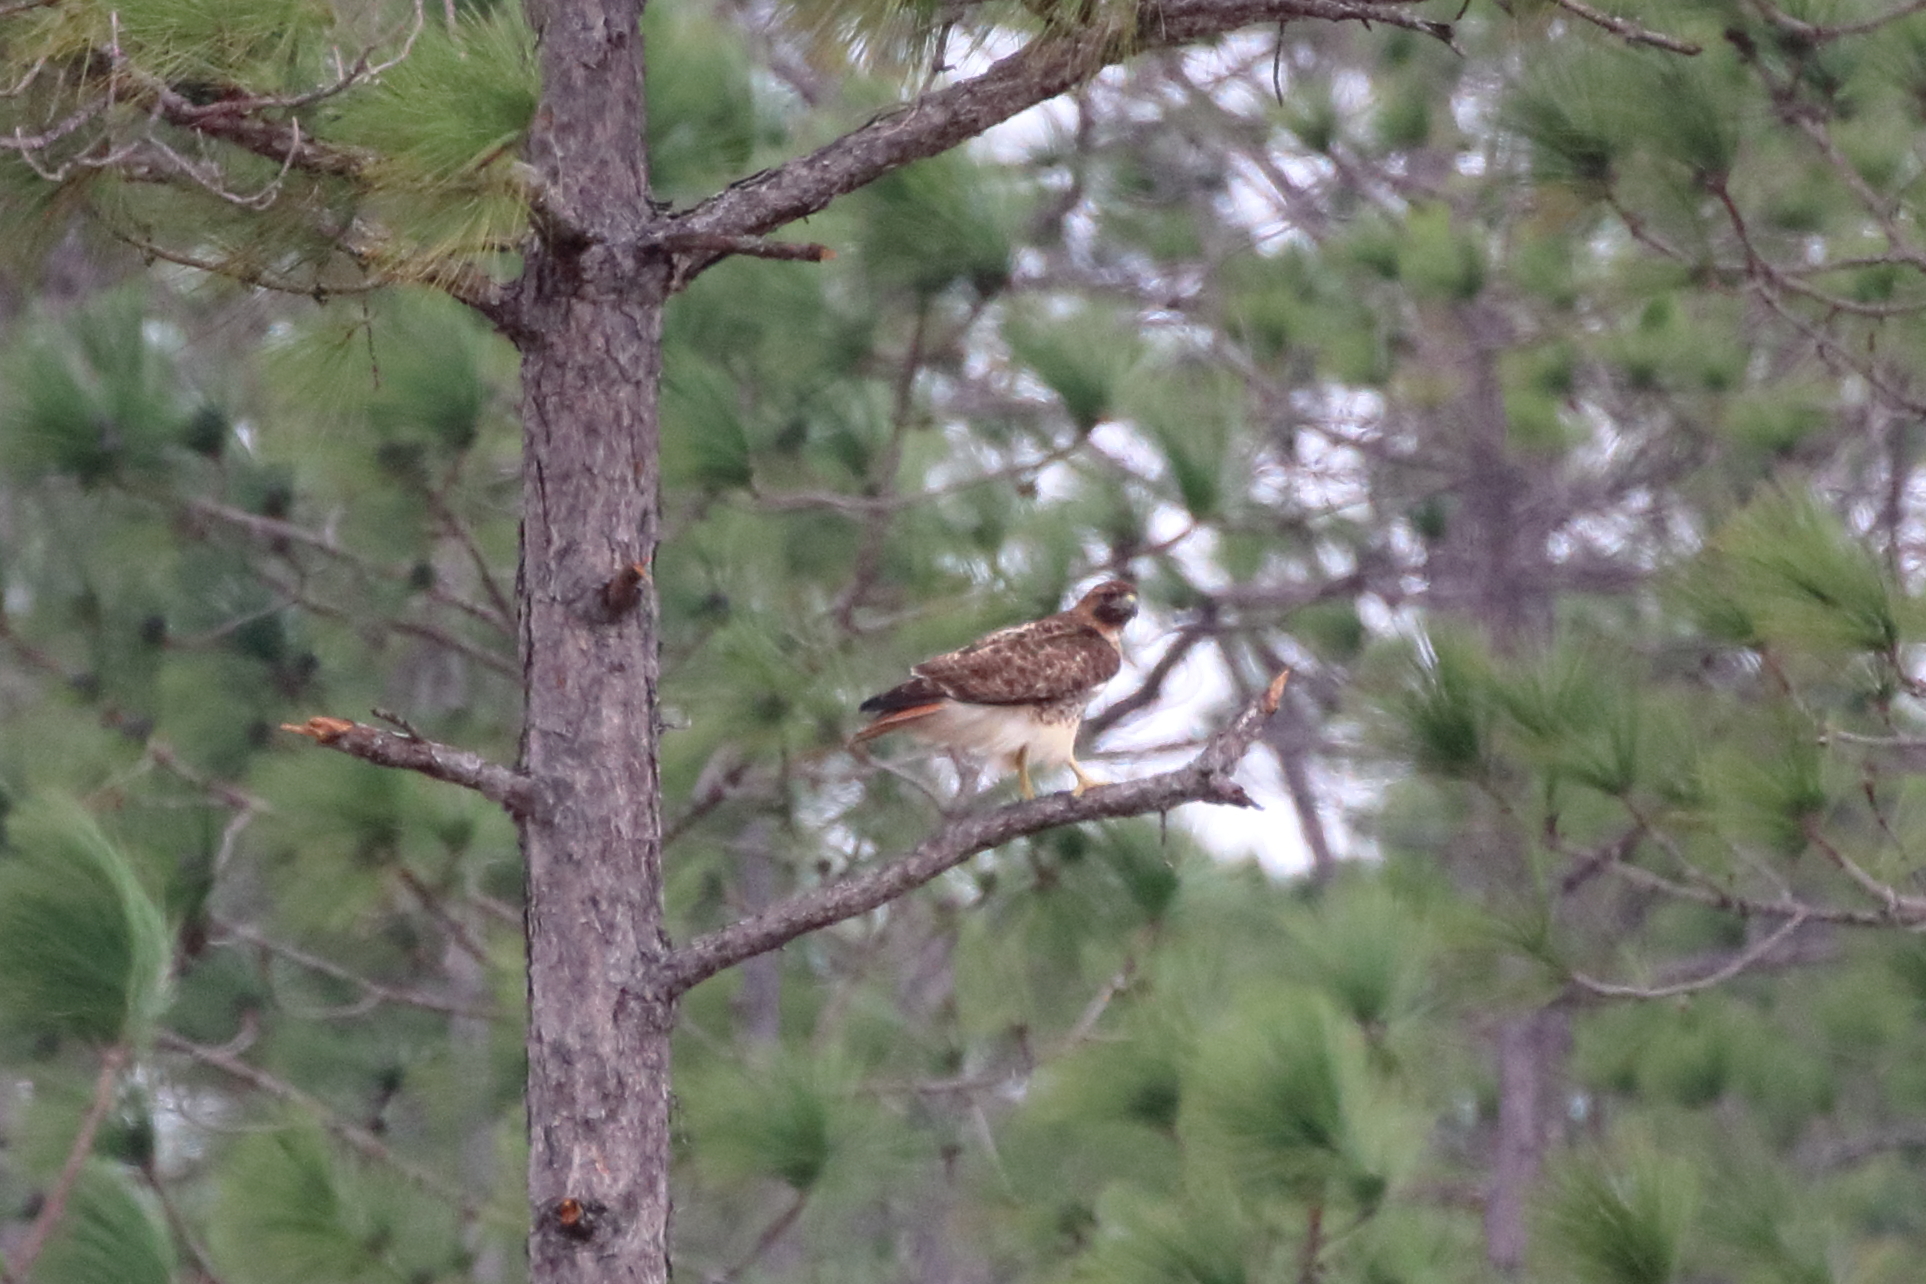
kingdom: Animalia
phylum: Chordata
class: Aves
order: Accipitriformes
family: Accipitridae
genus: Buteo
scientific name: Buteo jamaicensis
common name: Red-tailed hawk
